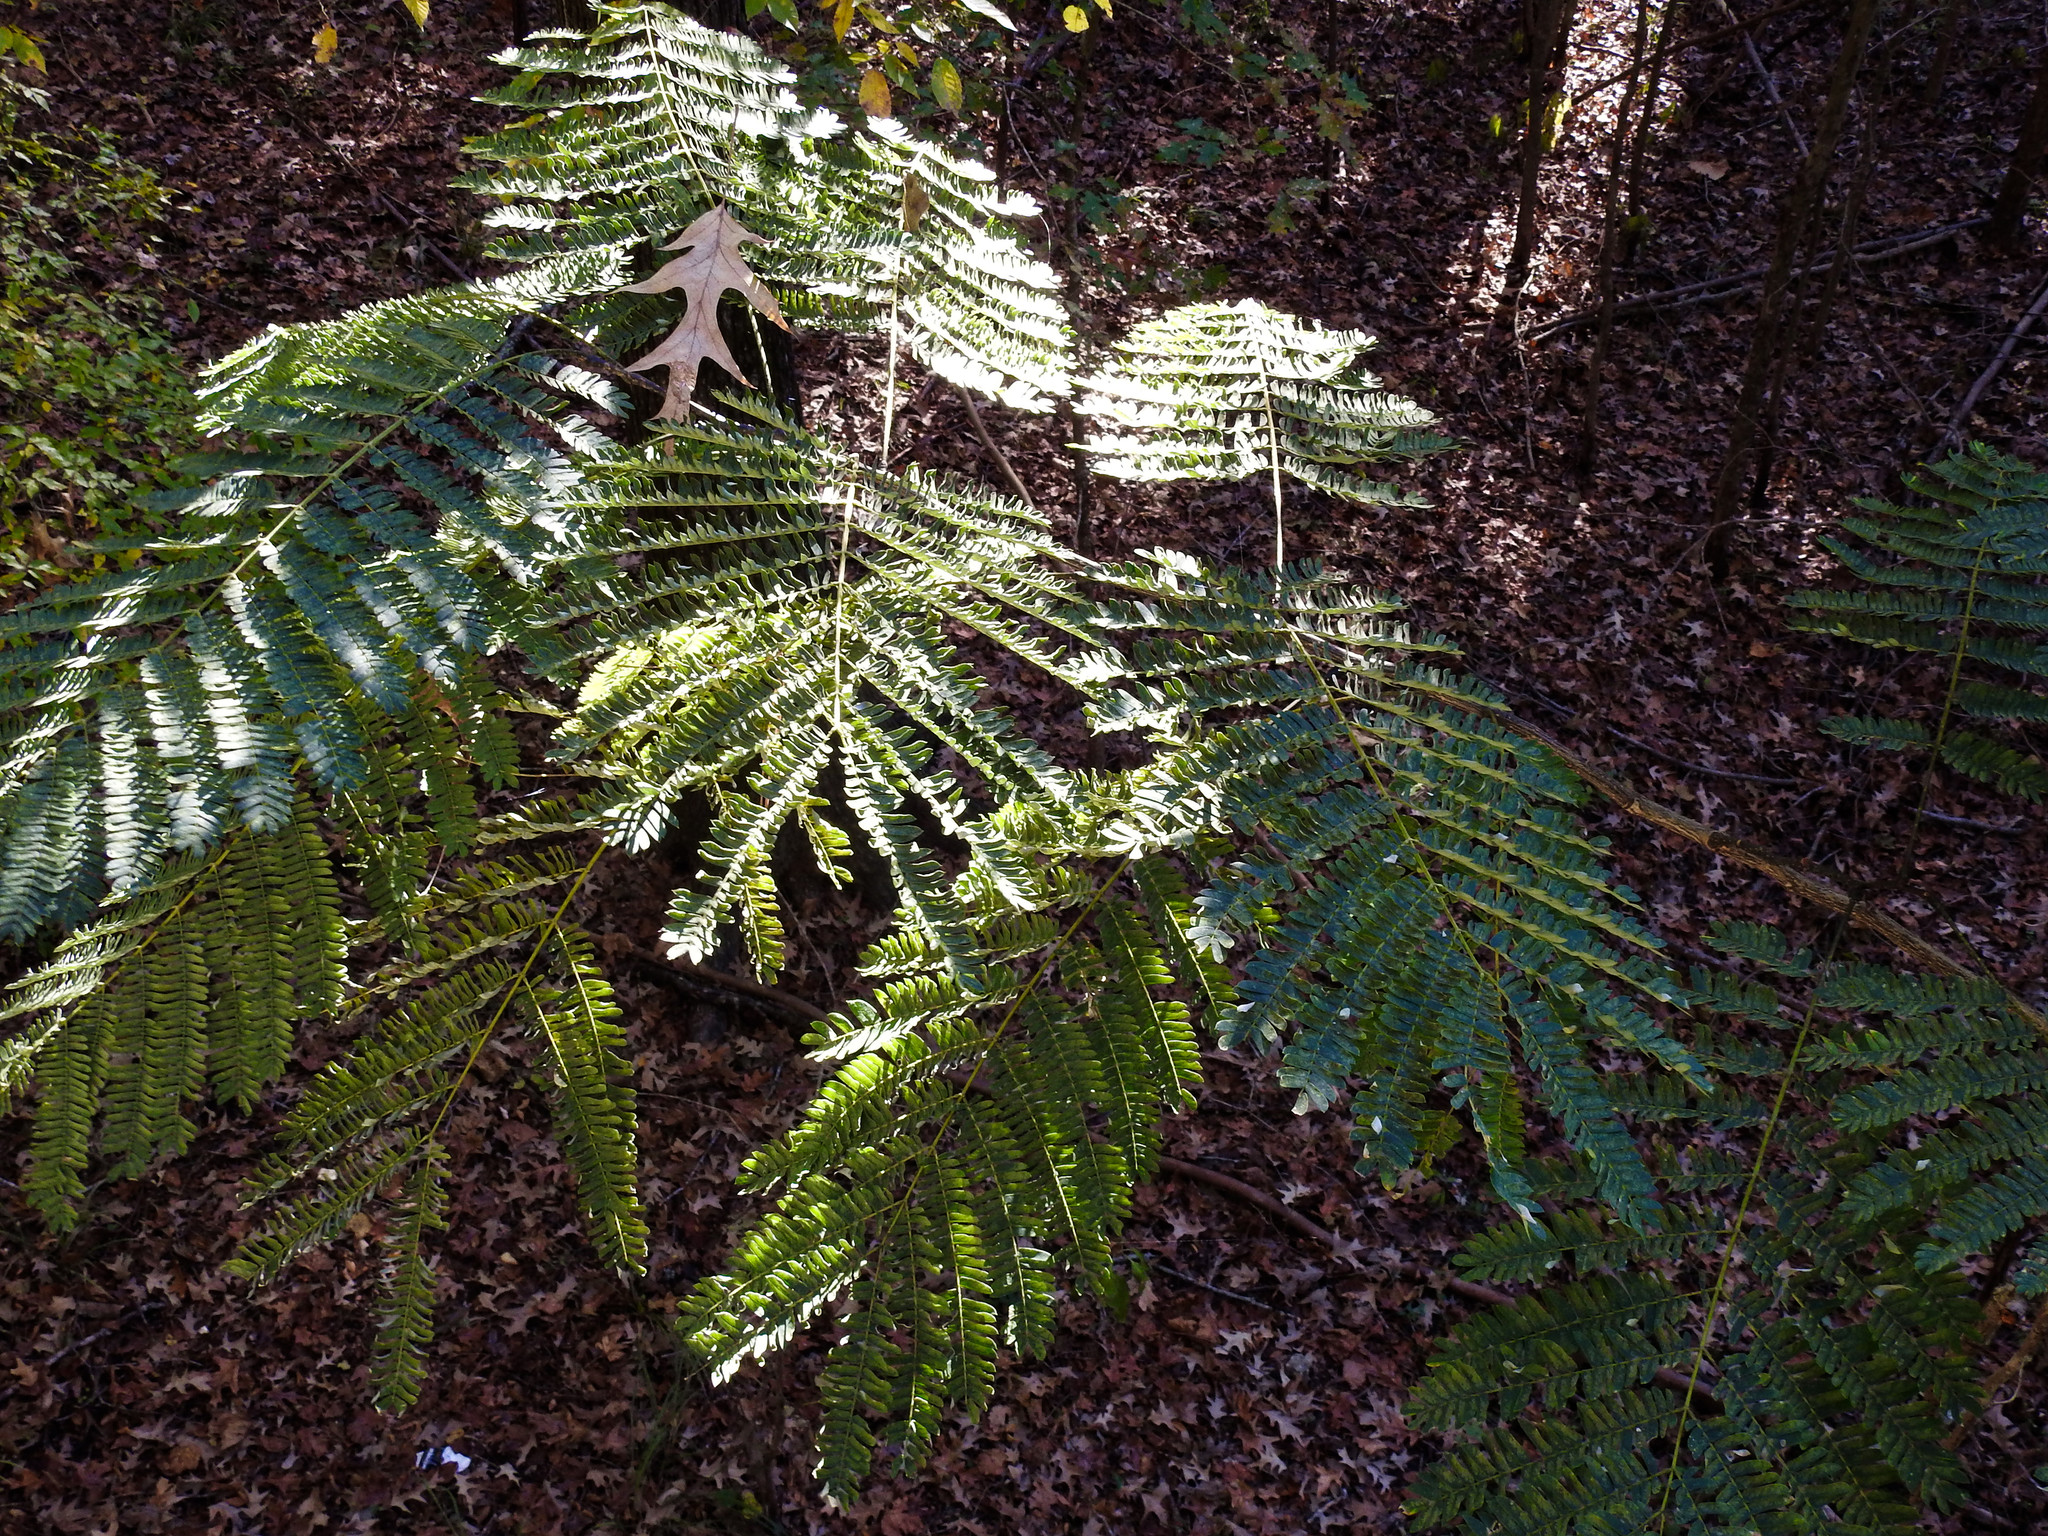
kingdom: Plantae
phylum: Tracheophyta
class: Magnoliopsida
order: Fabales
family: Fabaceae
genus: Albizia
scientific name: Albizia julibrissin
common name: Silktree
